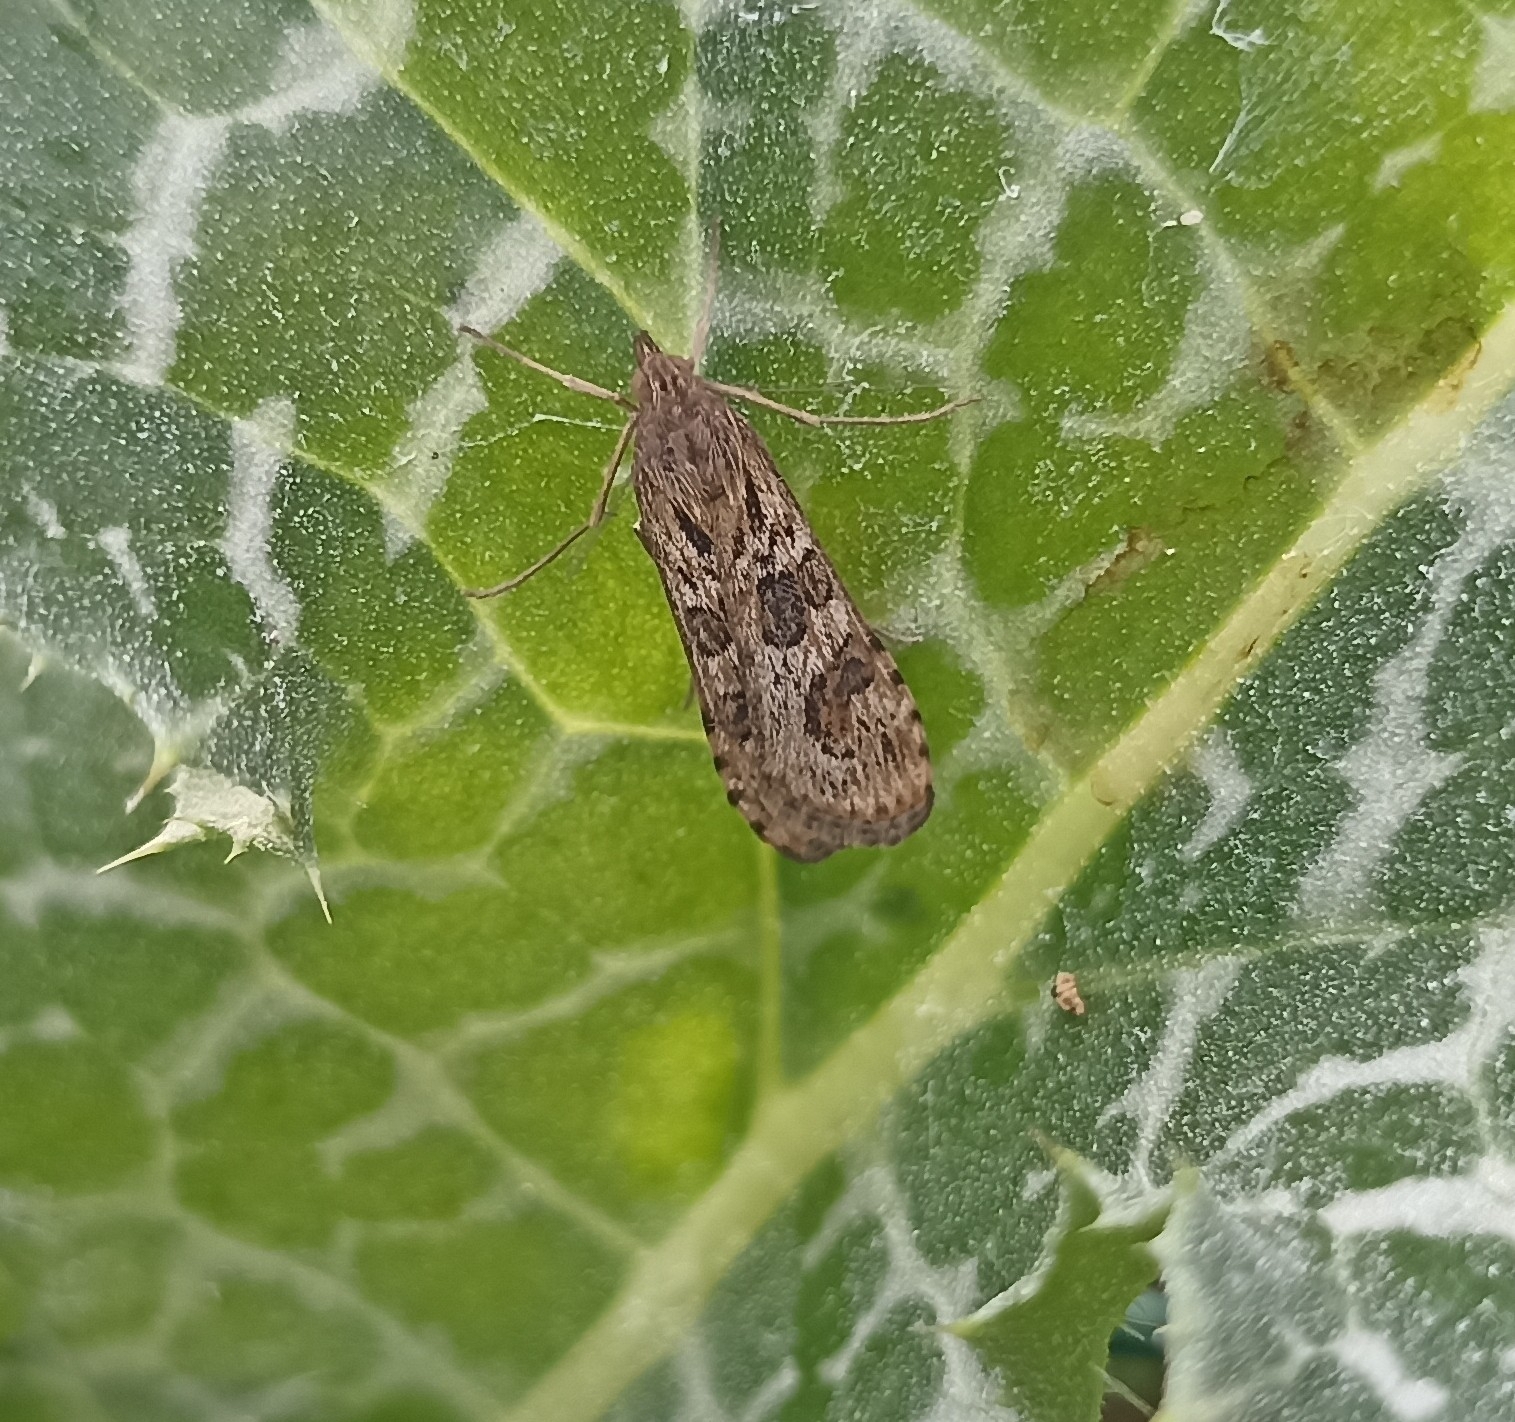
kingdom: Animalia
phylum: Arthropoda
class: Insecta
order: Lepidoptera
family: Crambidae
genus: Nomophila
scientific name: Nomophila noctuella
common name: Rush veneer
